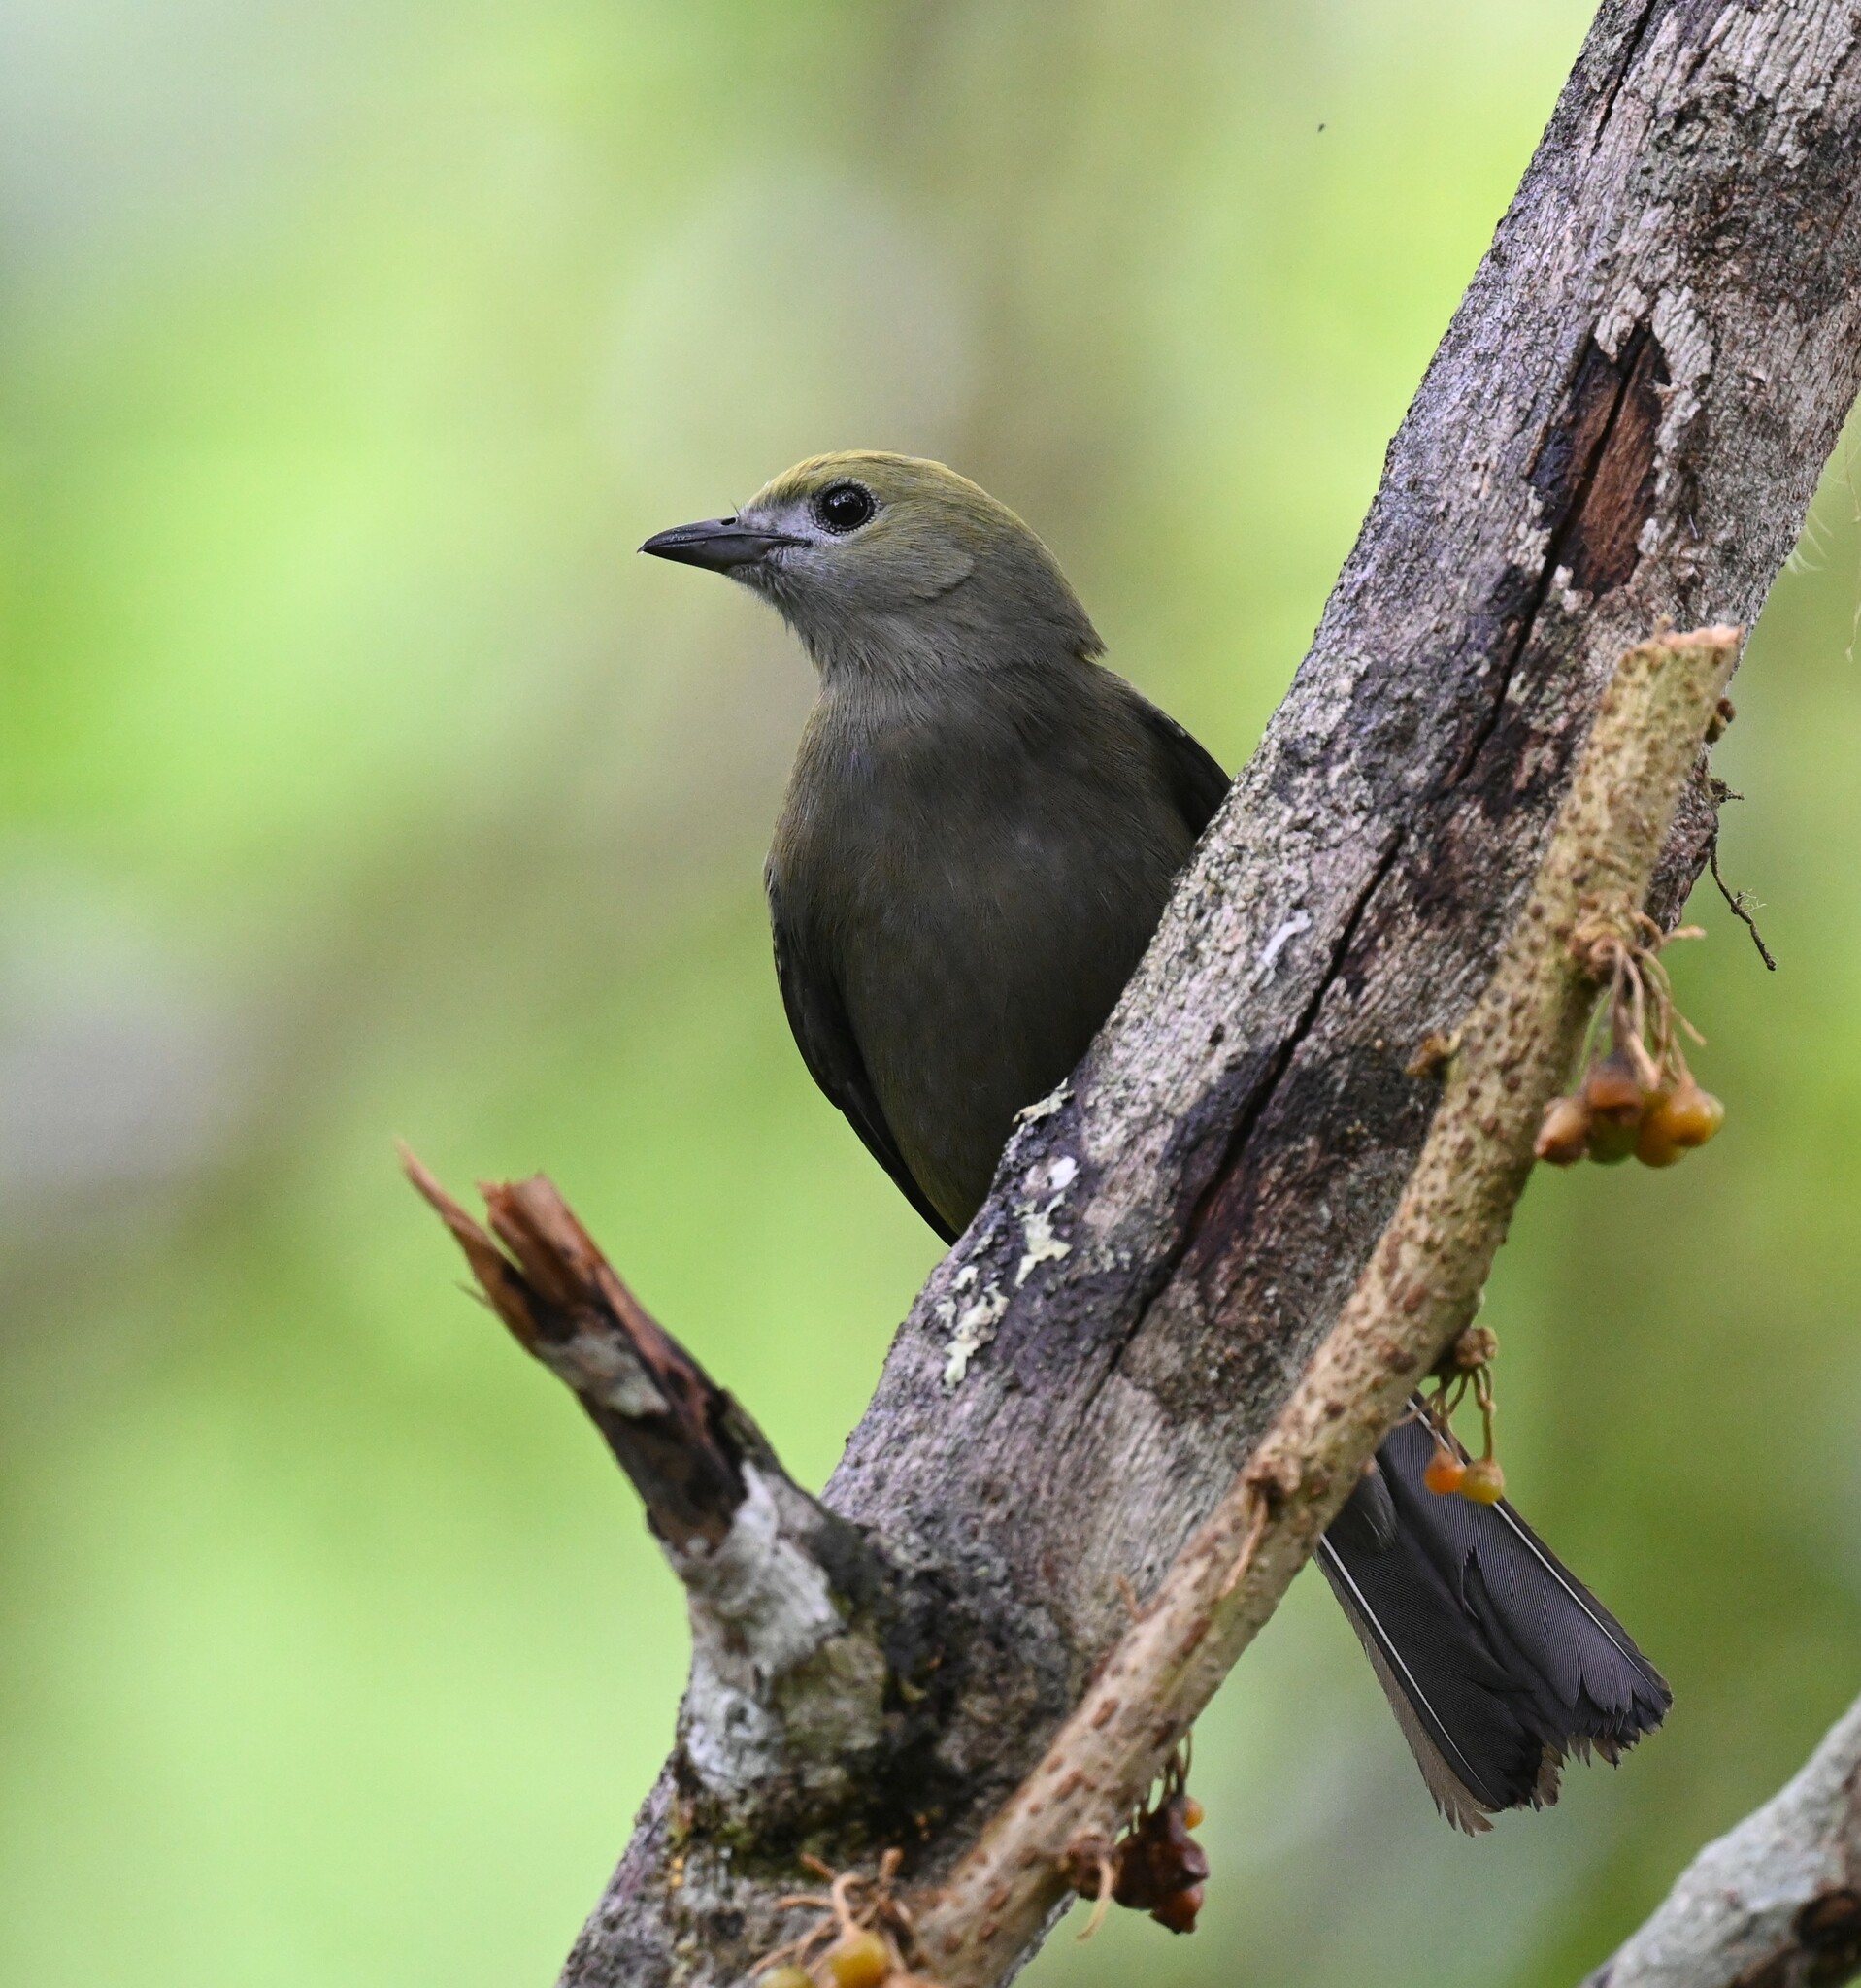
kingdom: Animalia
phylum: Chordata
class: Aves
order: Passeriformes
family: Thraupidae
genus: Thraupis
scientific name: Thraupis palmarum
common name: Palm tanager
